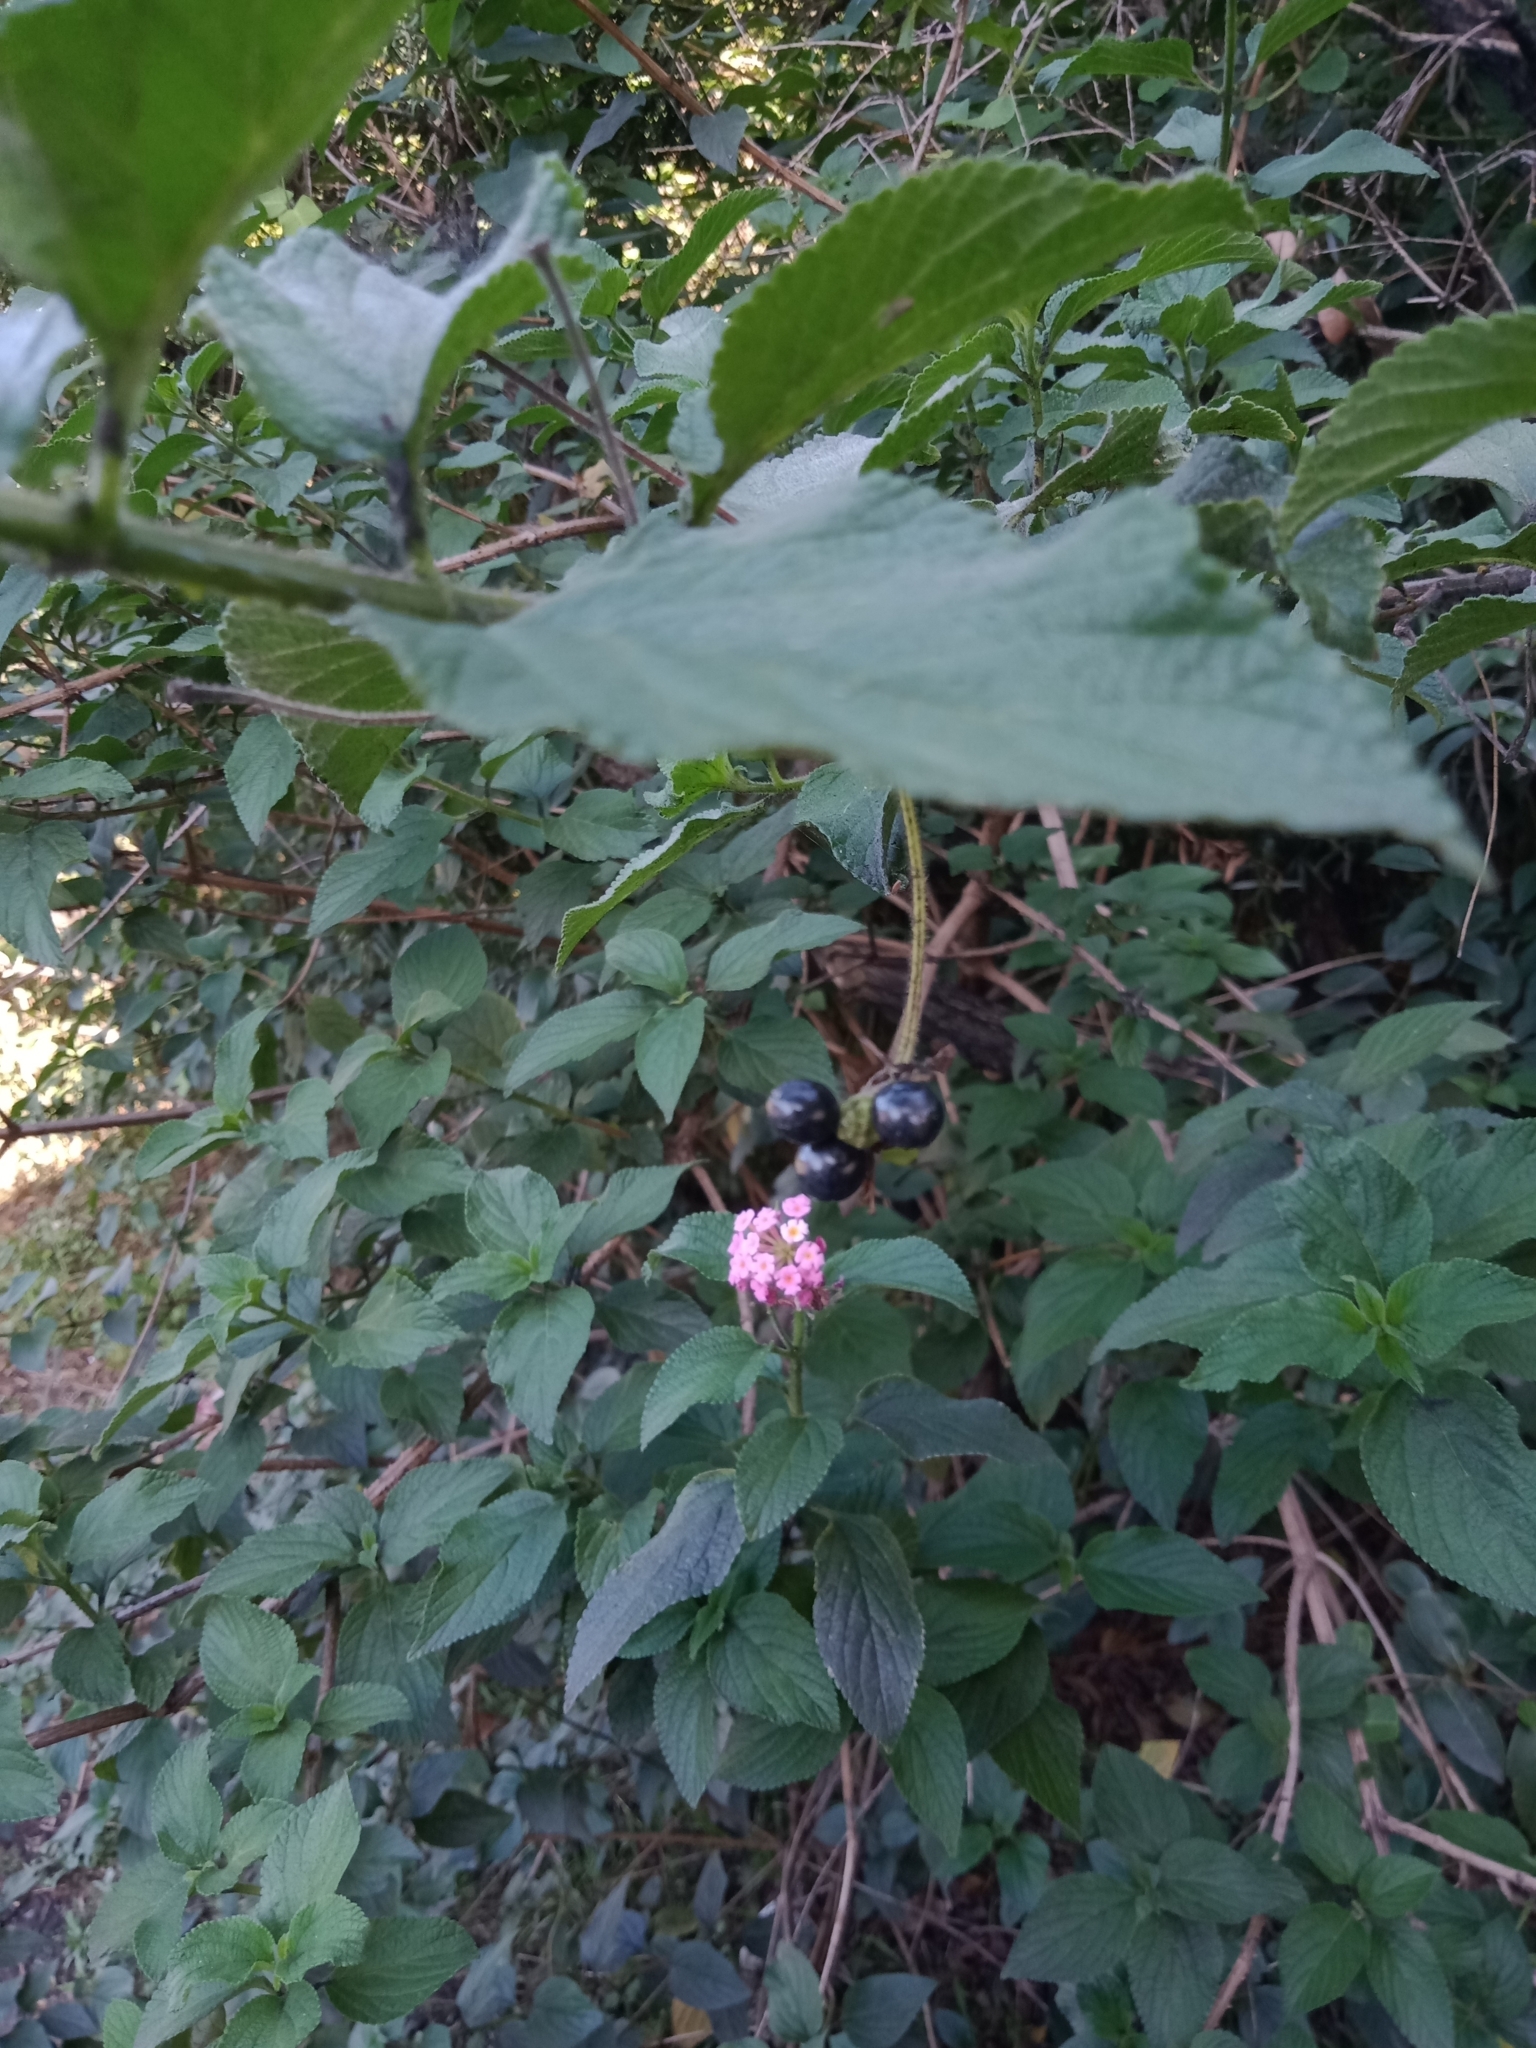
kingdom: Plantae
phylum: Tracheophyta
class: Magnoliopsida
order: Lamiales
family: Verbenaceae
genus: Lantana
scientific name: Lantana camara
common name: Lantana
